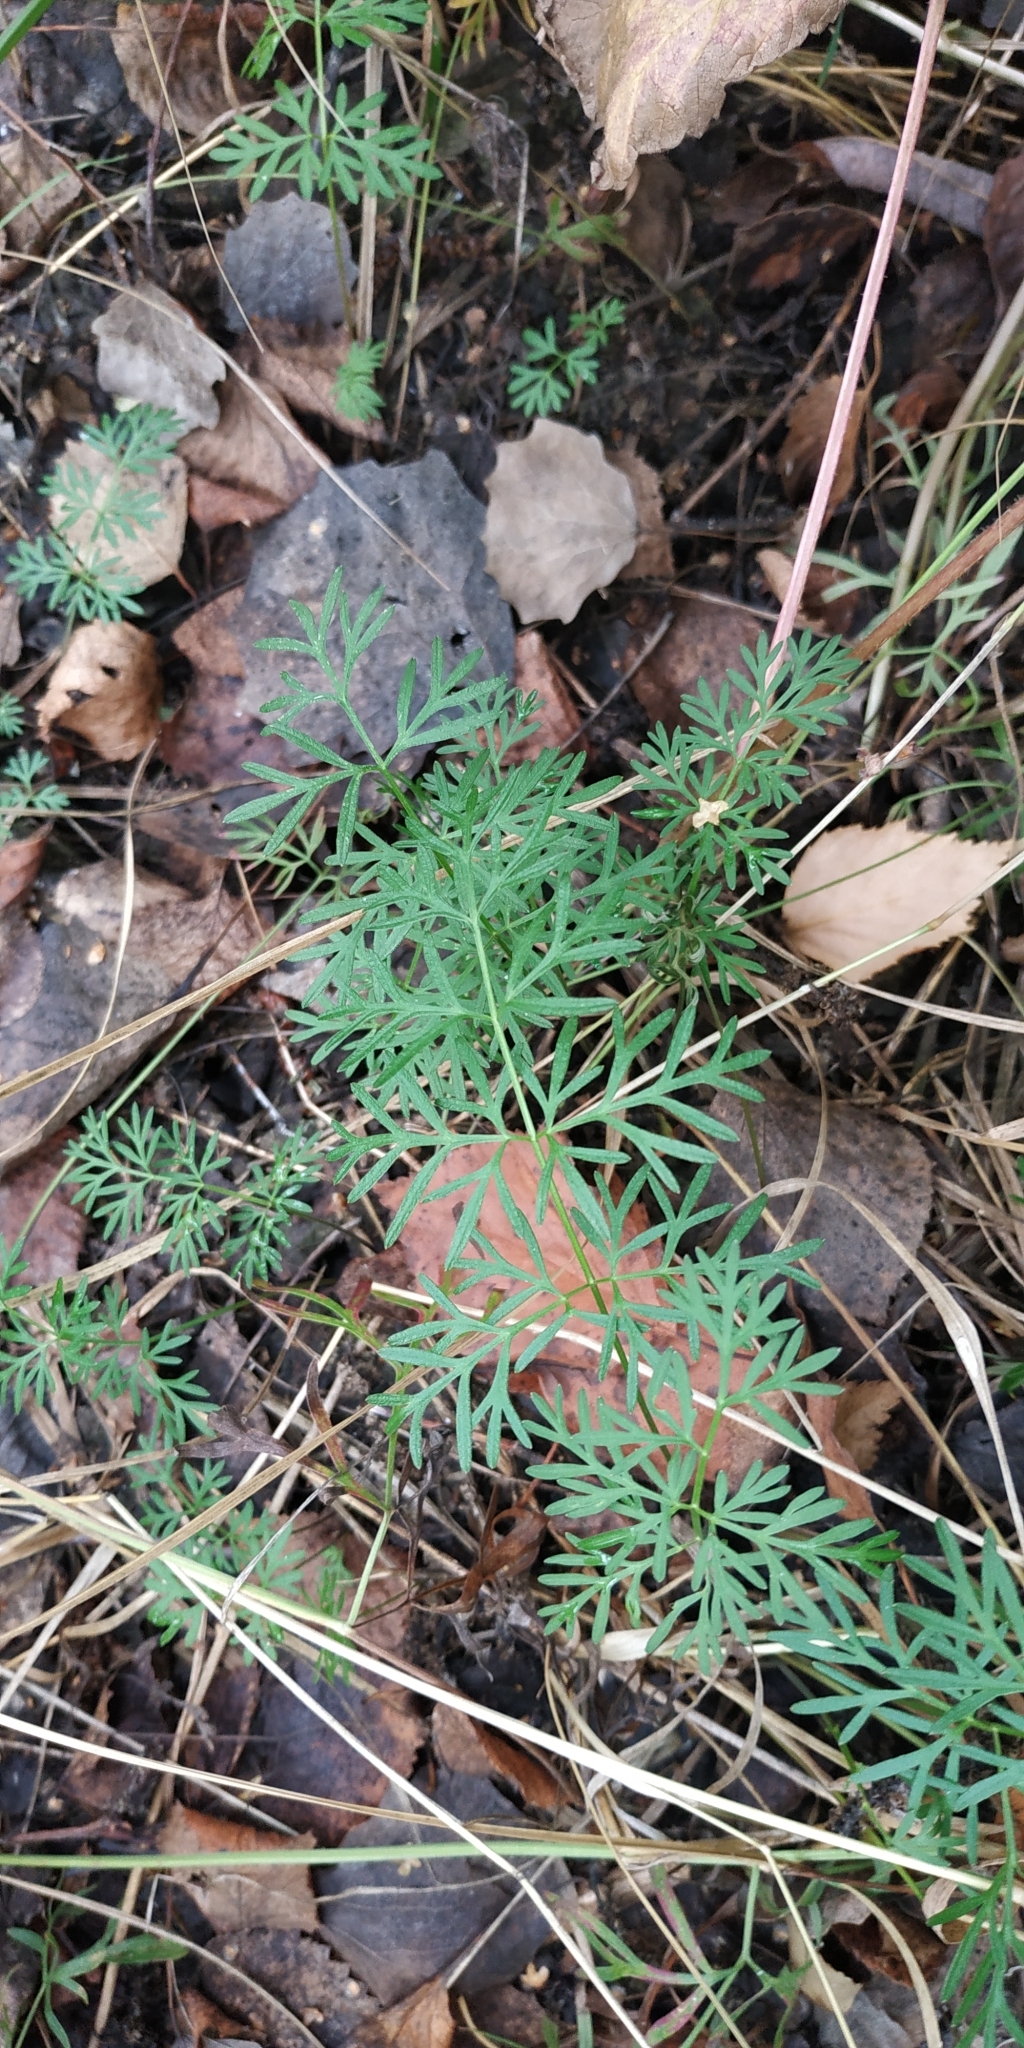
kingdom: Plantae
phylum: Tracheophyta
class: Magnoliopsida
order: Apiales
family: Apiaceae
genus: Kadenia
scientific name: Kadenia dubia
